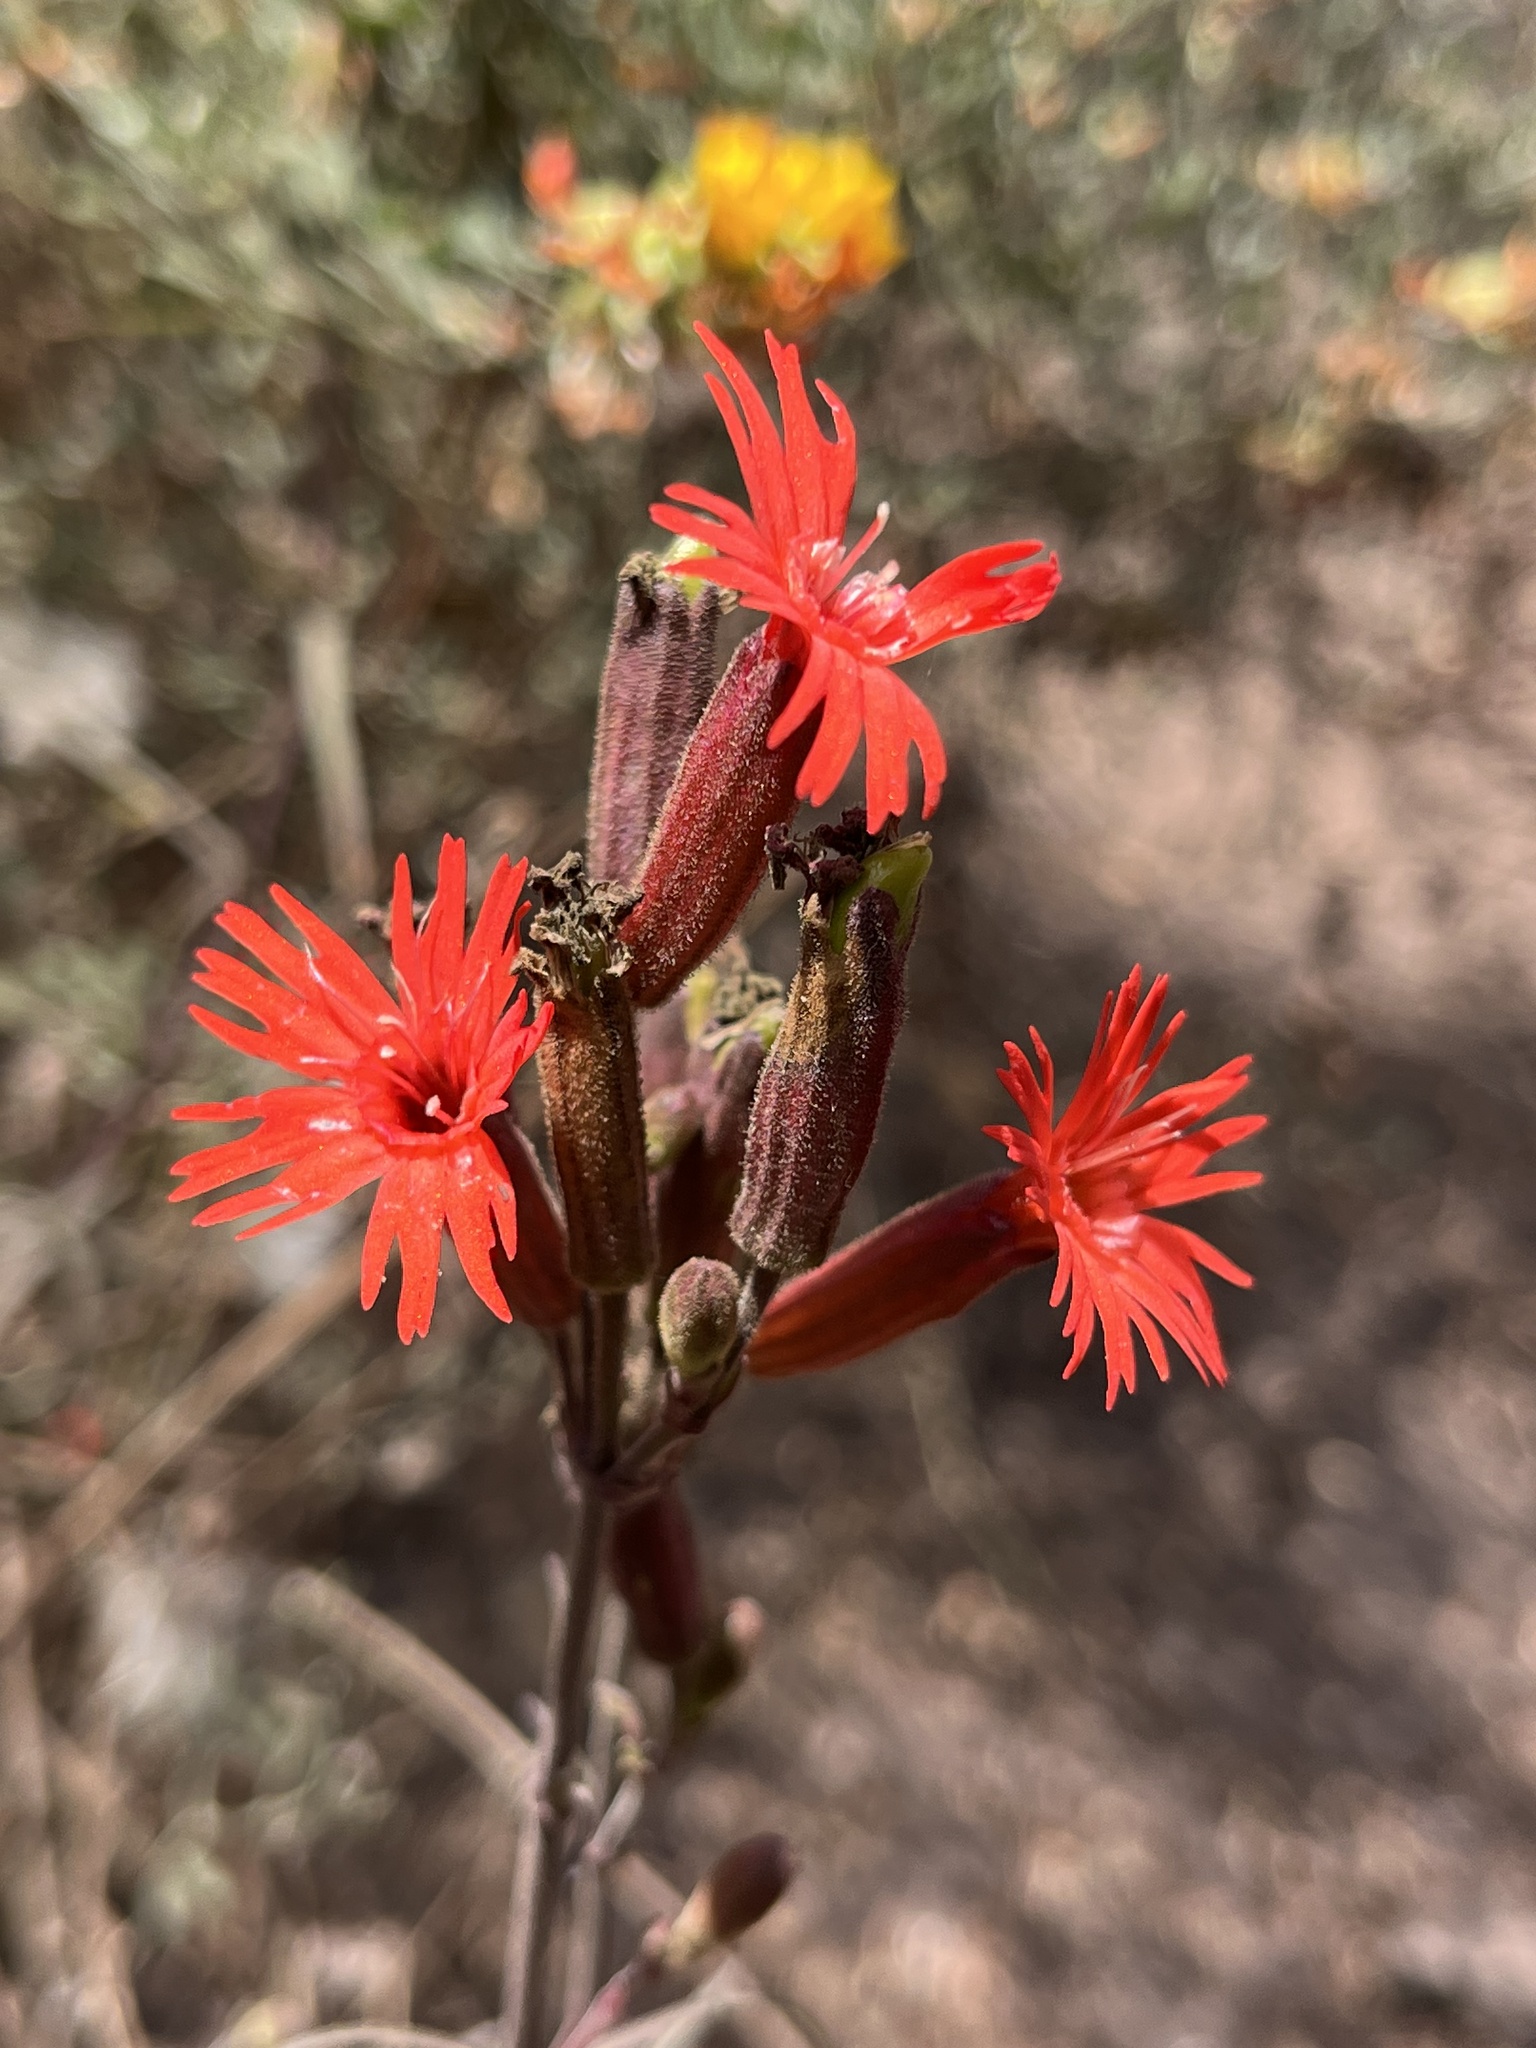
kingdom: Plantae
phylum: Tracheophyta
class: Magnoliopsida
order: Caryophyllales
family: Caryophyllaceae
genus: Silene
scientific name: Silene laciniata
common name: Indian-pink
